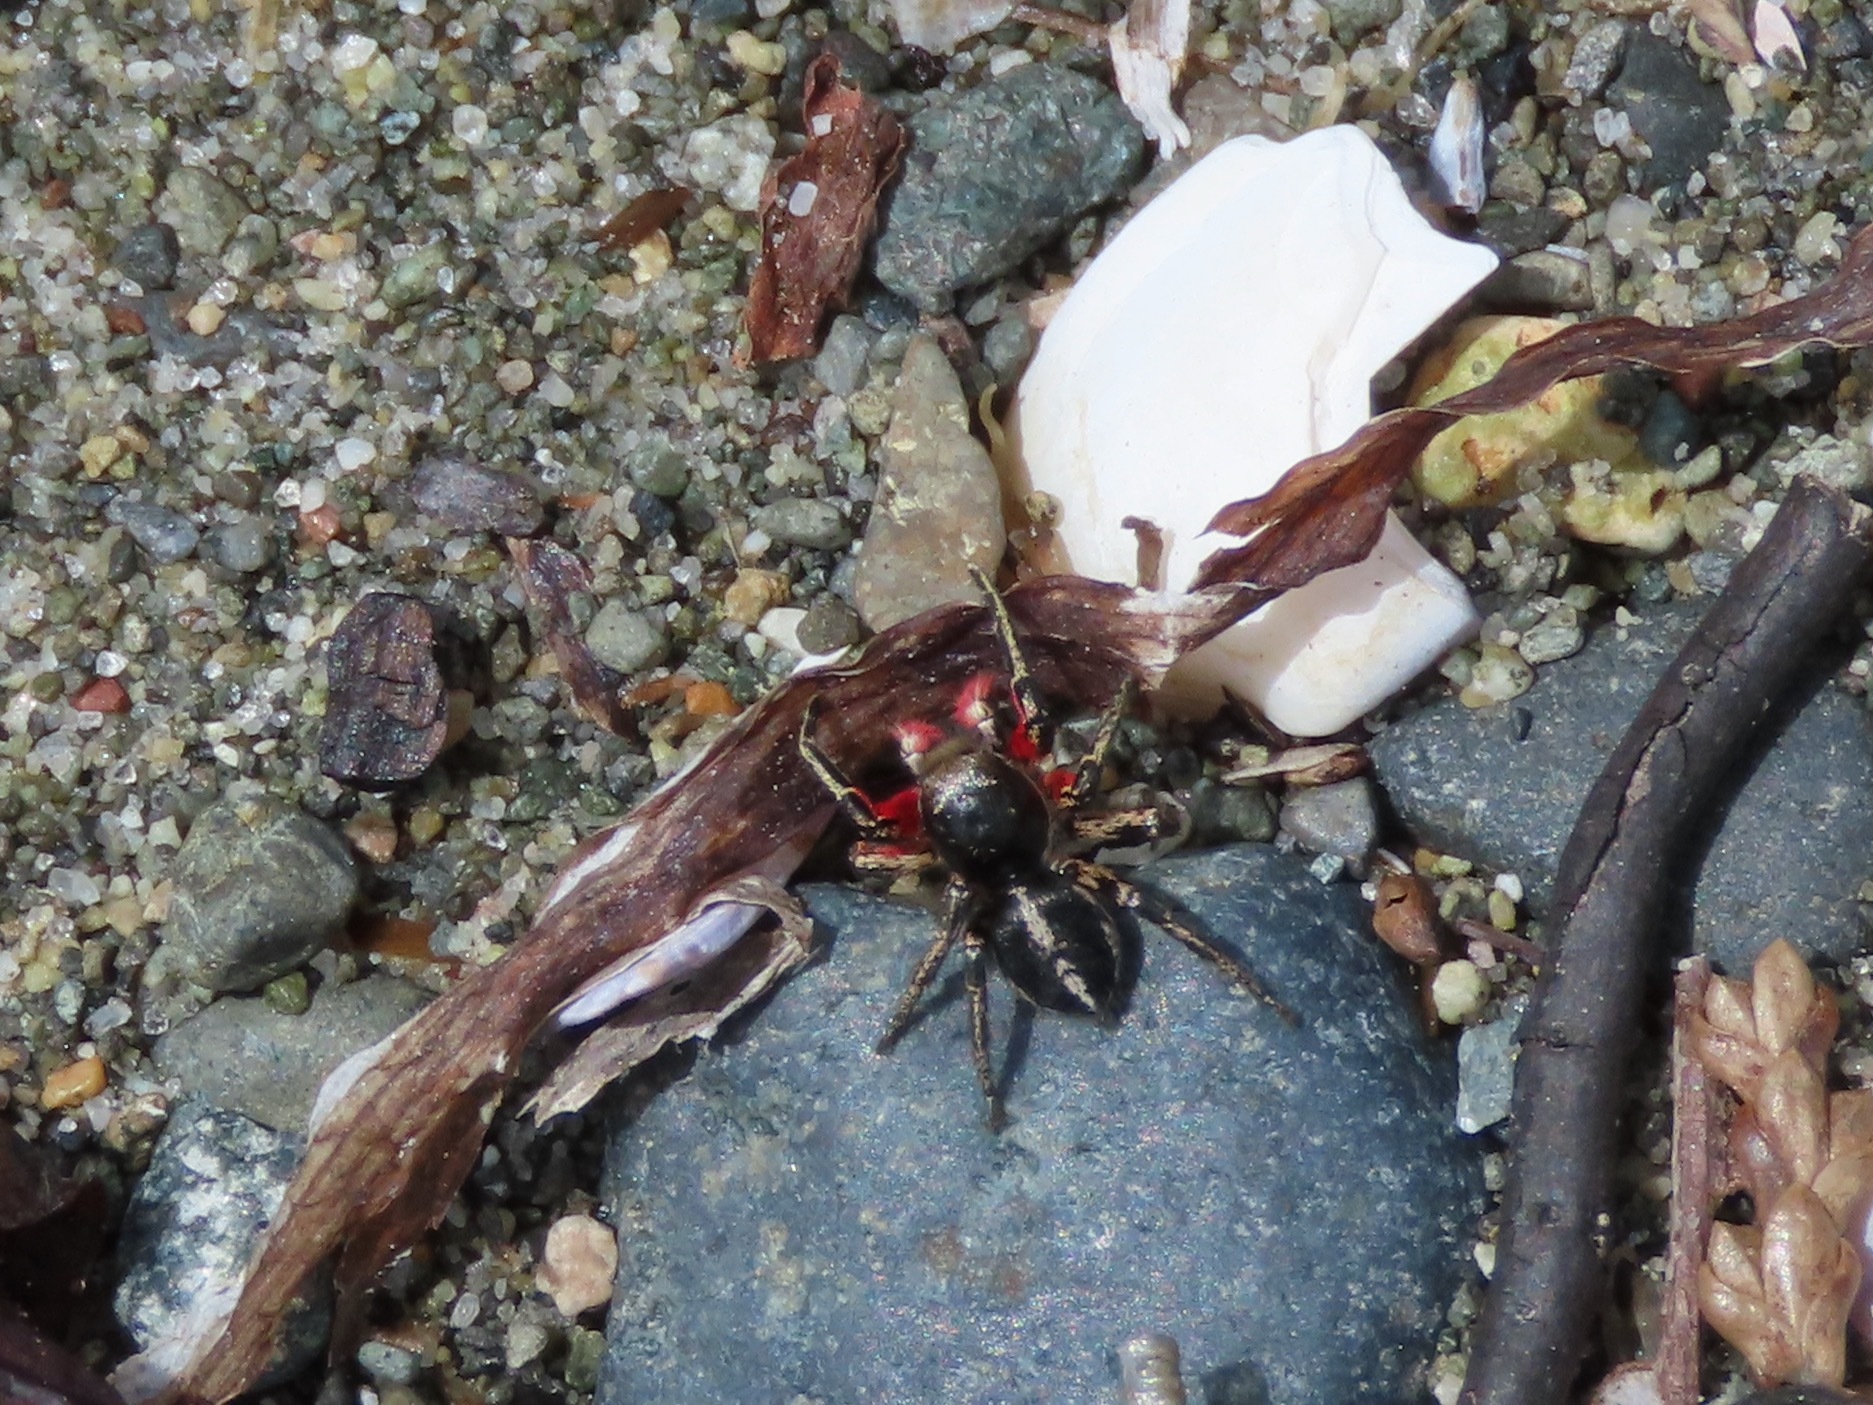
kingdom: Animalia
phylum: Arthropoda
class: Arachnida
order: Araneae
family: Salticidae
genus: Habronattus
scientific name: Habronattus americanus
